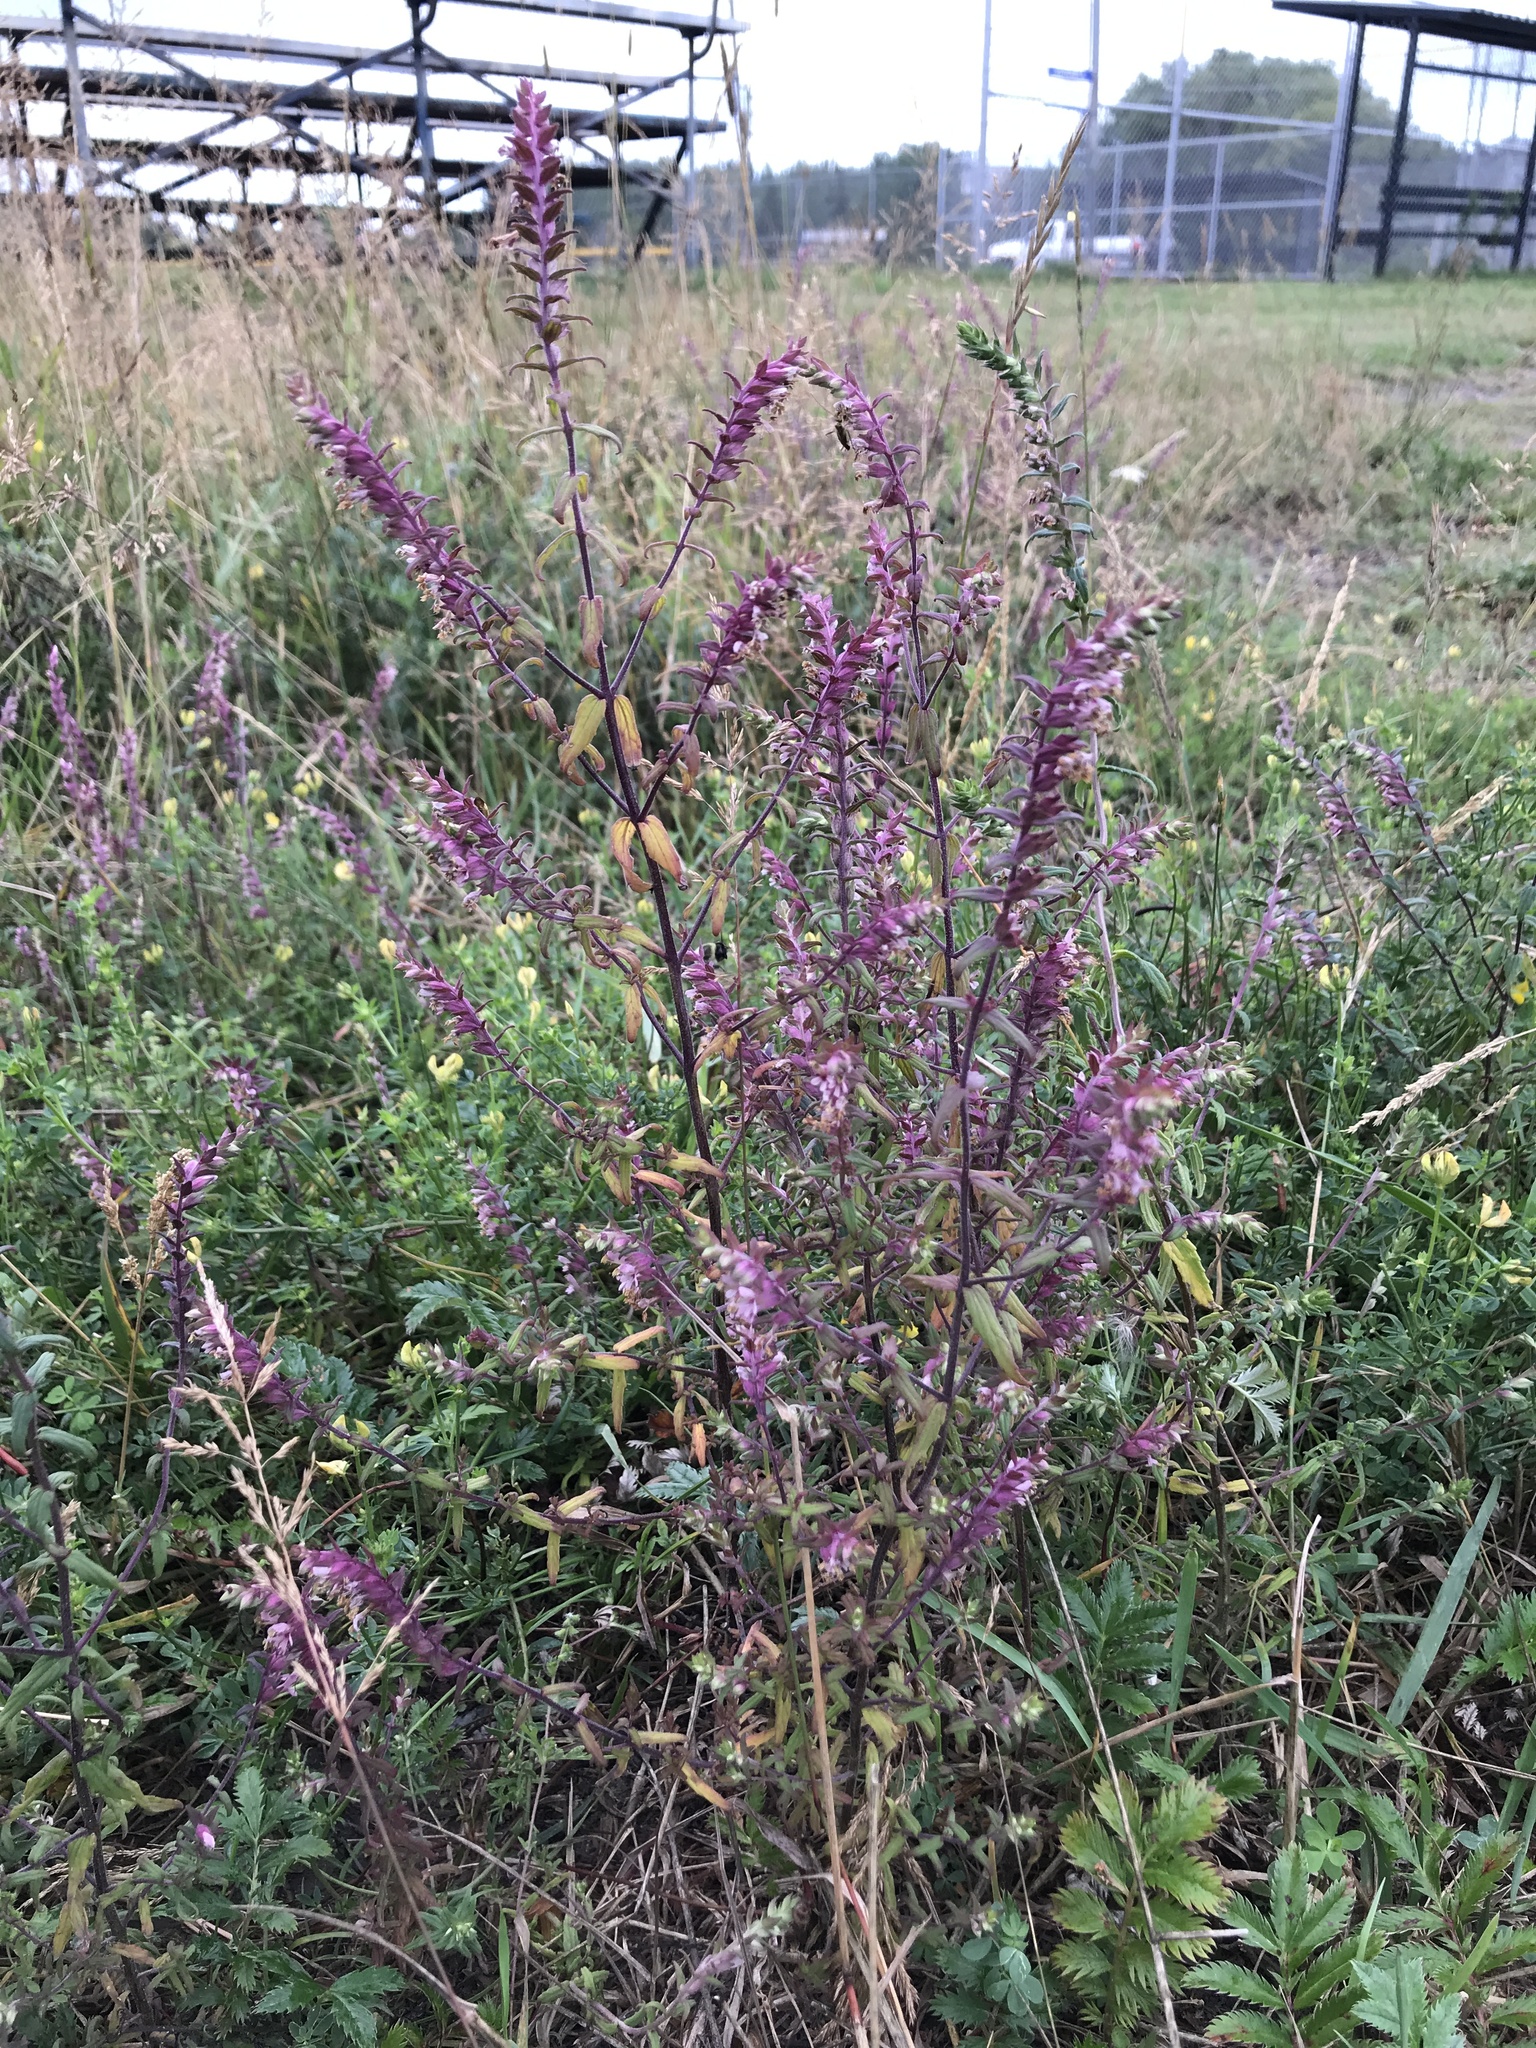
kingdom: Plantae
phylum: Tracheophyta
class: Magnoliopsida
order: Lamiales
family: Orobanchaceae
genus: Odontites
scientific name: Odontites vulgaris
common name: Broomrape
